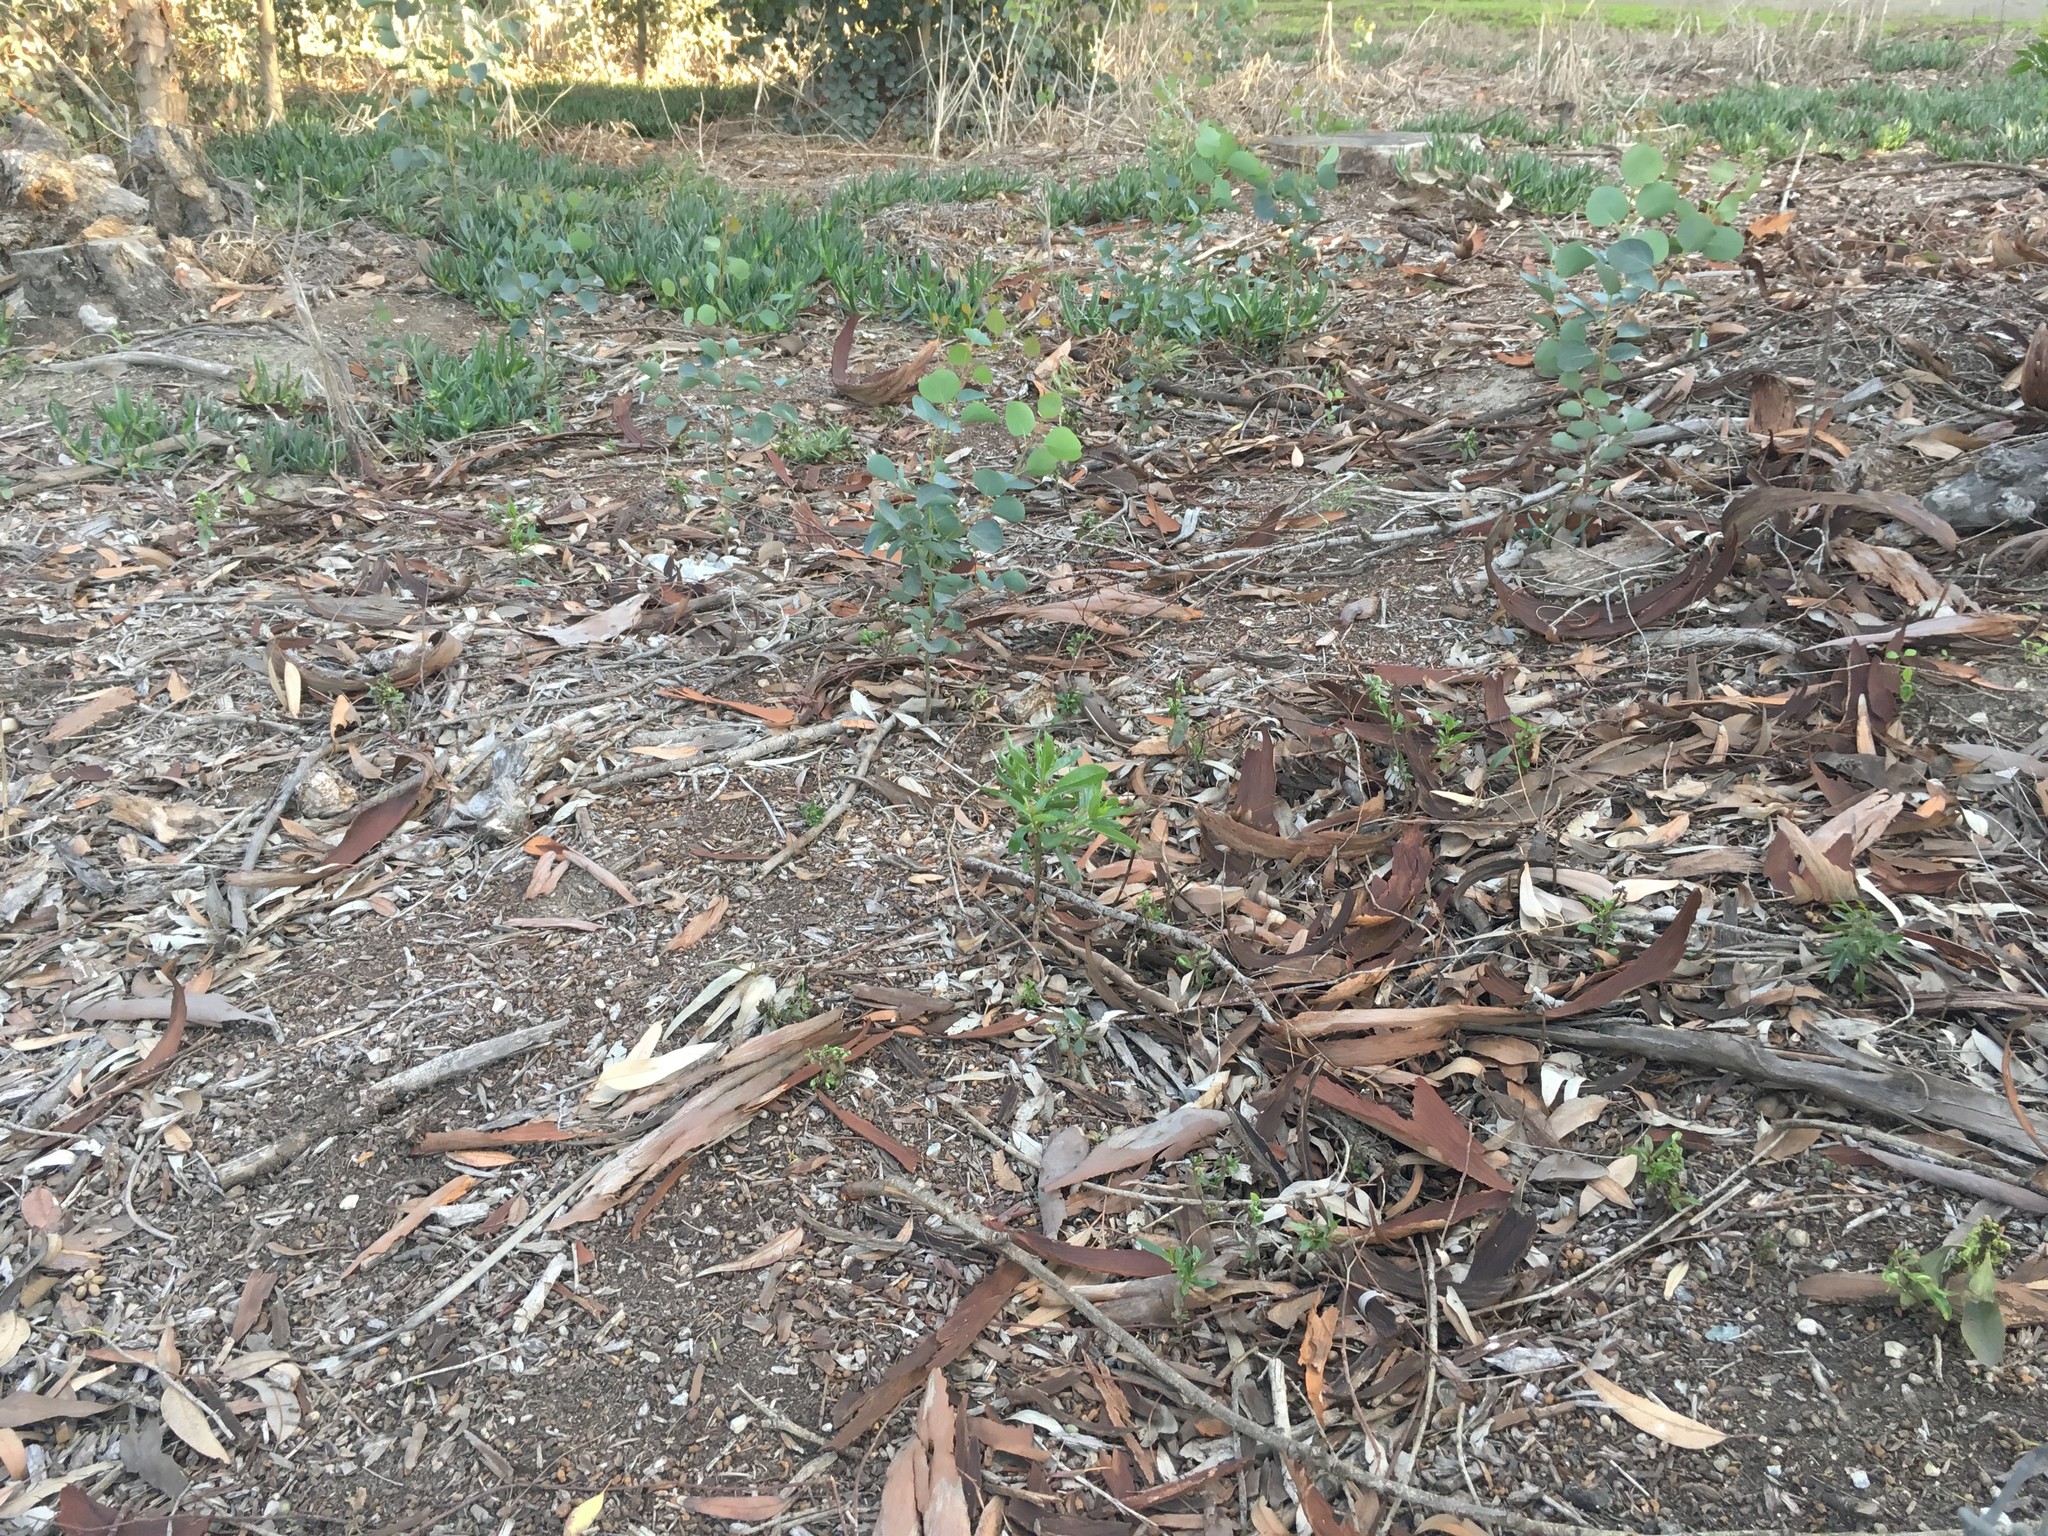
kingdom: Plantae
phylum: Tracheophyta
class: Magnoliopsida
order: Lamiales
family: Scrophulariaceae
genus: Myoporum
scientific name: Myoporum laetum
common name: Ngaio tree
